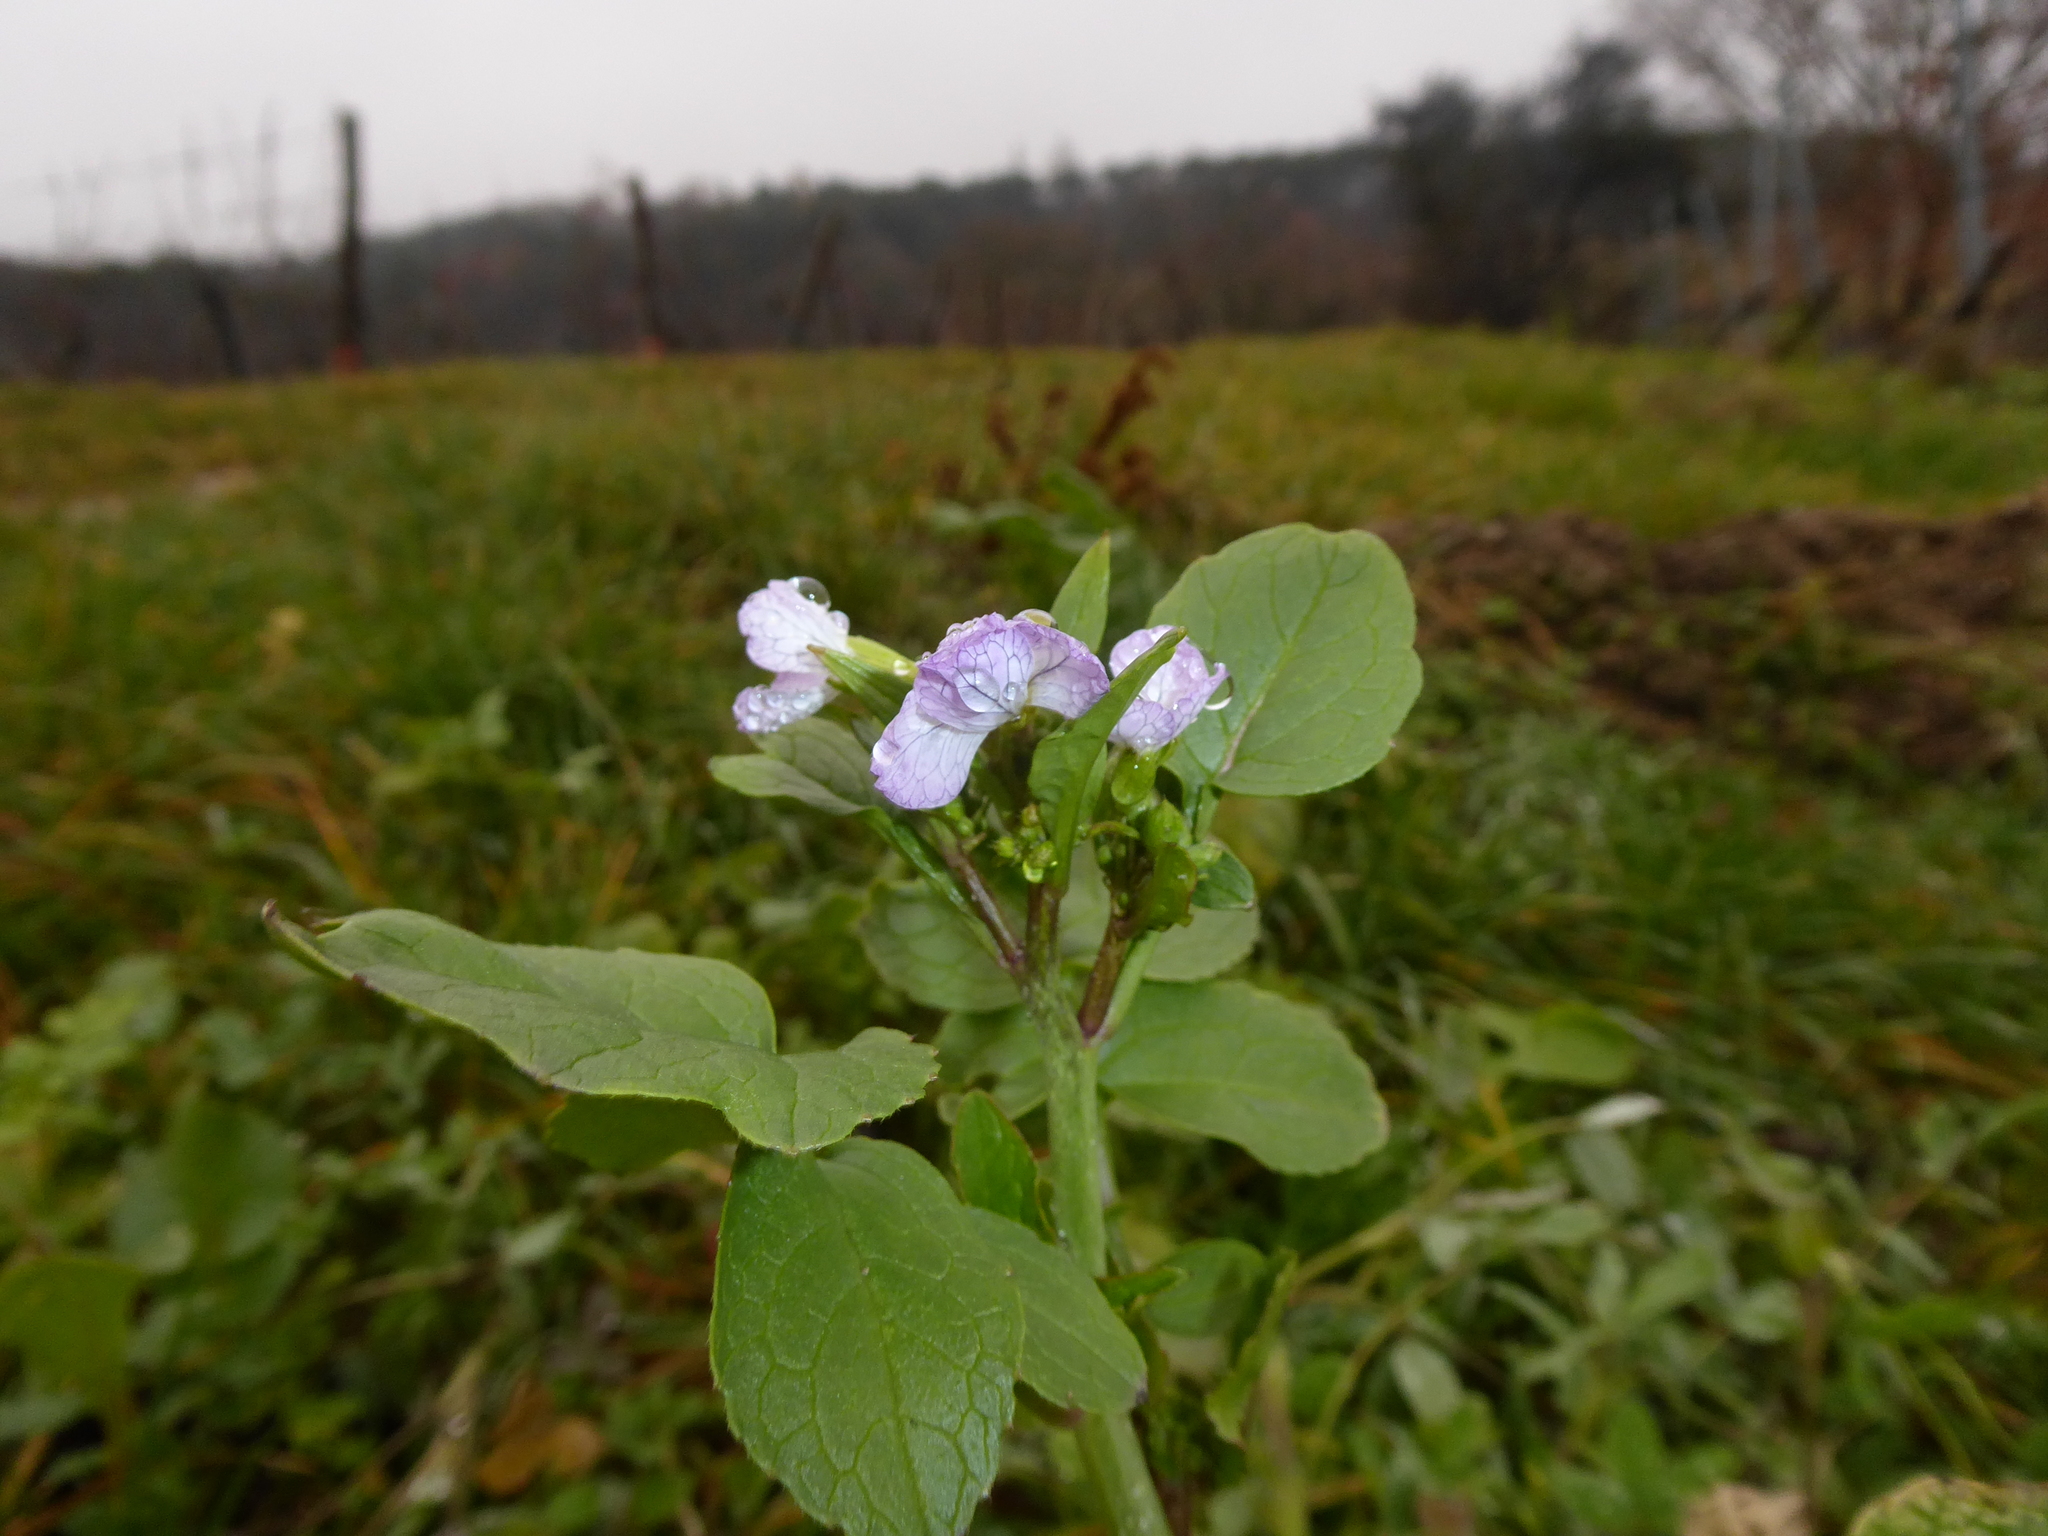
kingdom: Plantae
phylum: Tracheophyta
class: Magnoliopsida
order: Brassicales
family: Brassicaceae
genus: Raphanus
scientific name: Raphanus sativus
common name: Cultivated radish
